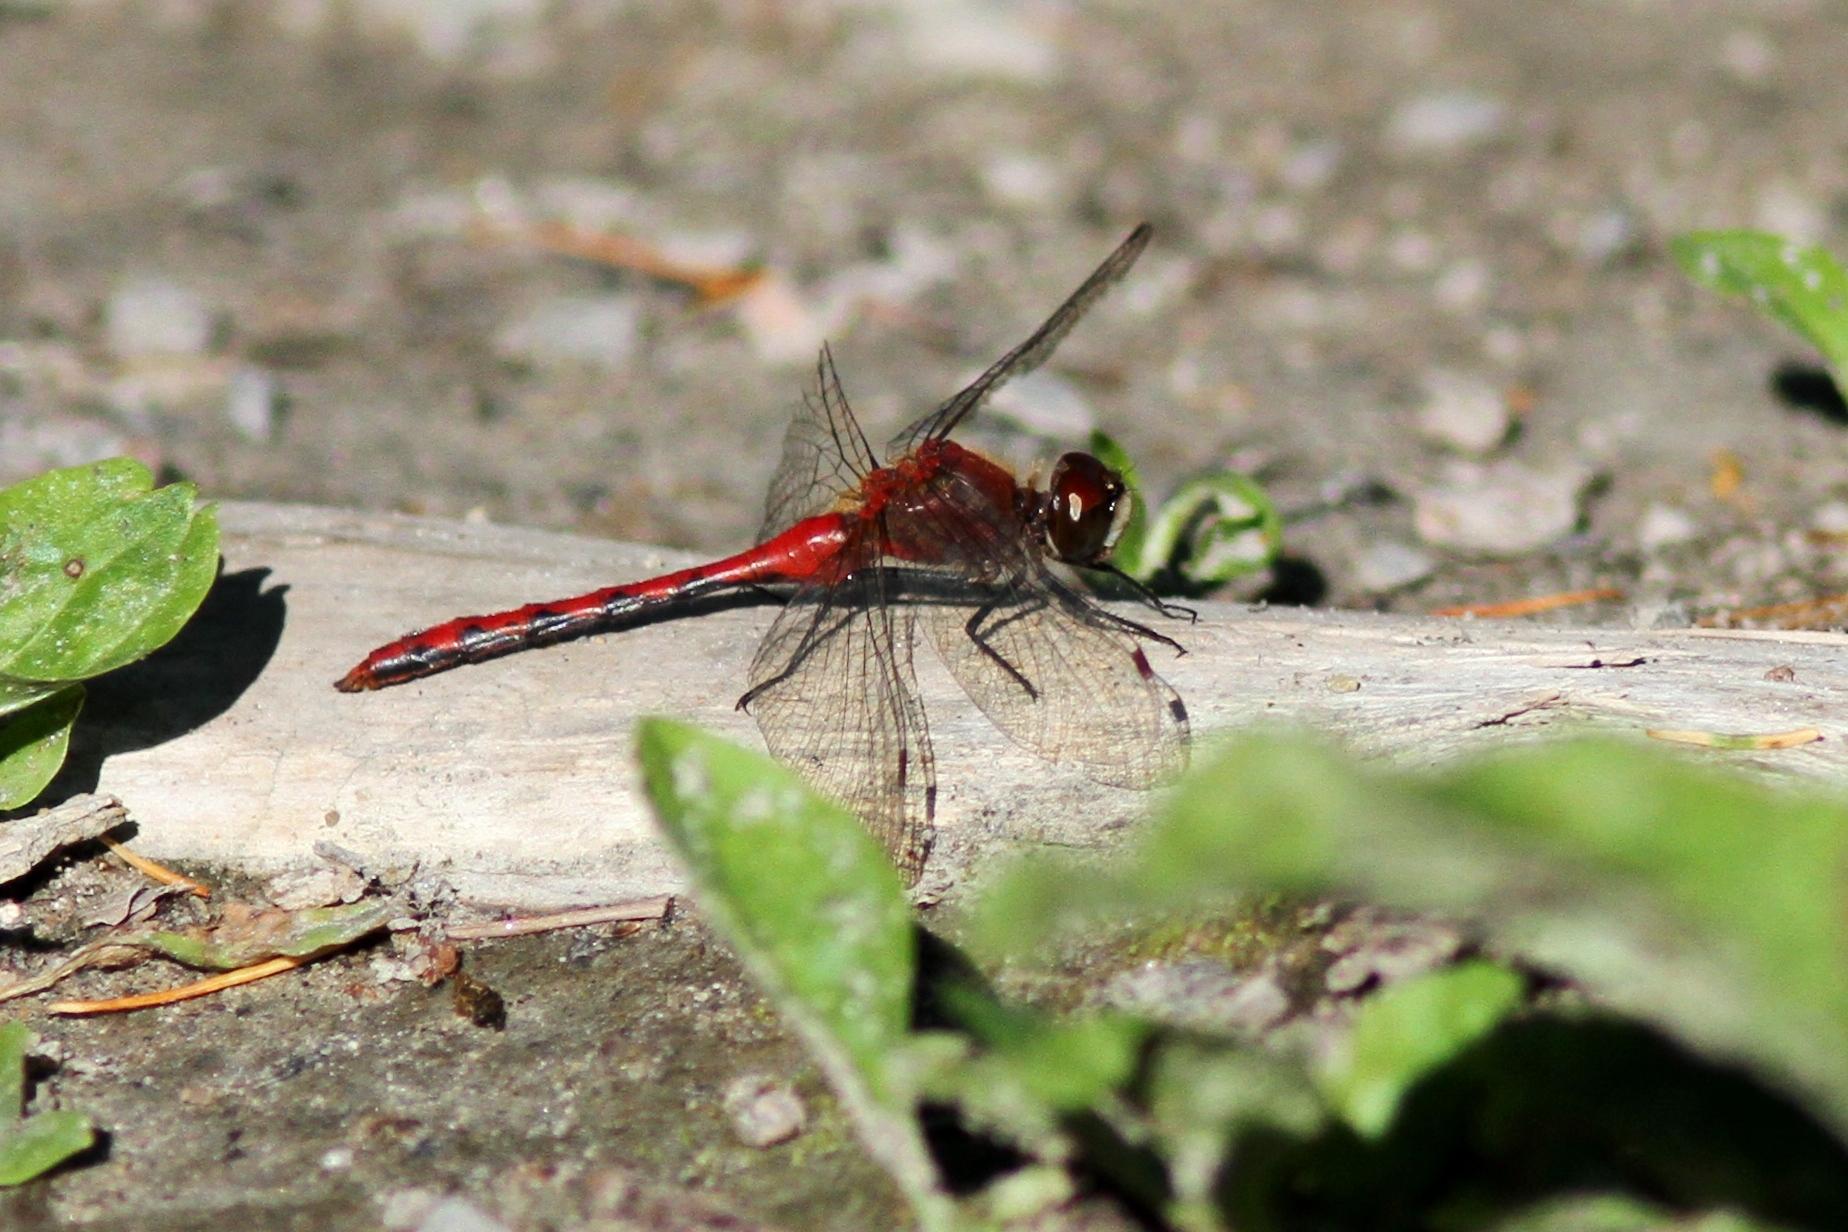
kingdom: Animalia
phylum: Arthropoda
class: Insecta
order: Odonata
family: Libellulidae
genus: Sympetrum
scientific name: Sympetrum obtrusum
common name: White-faced meadowhawk
